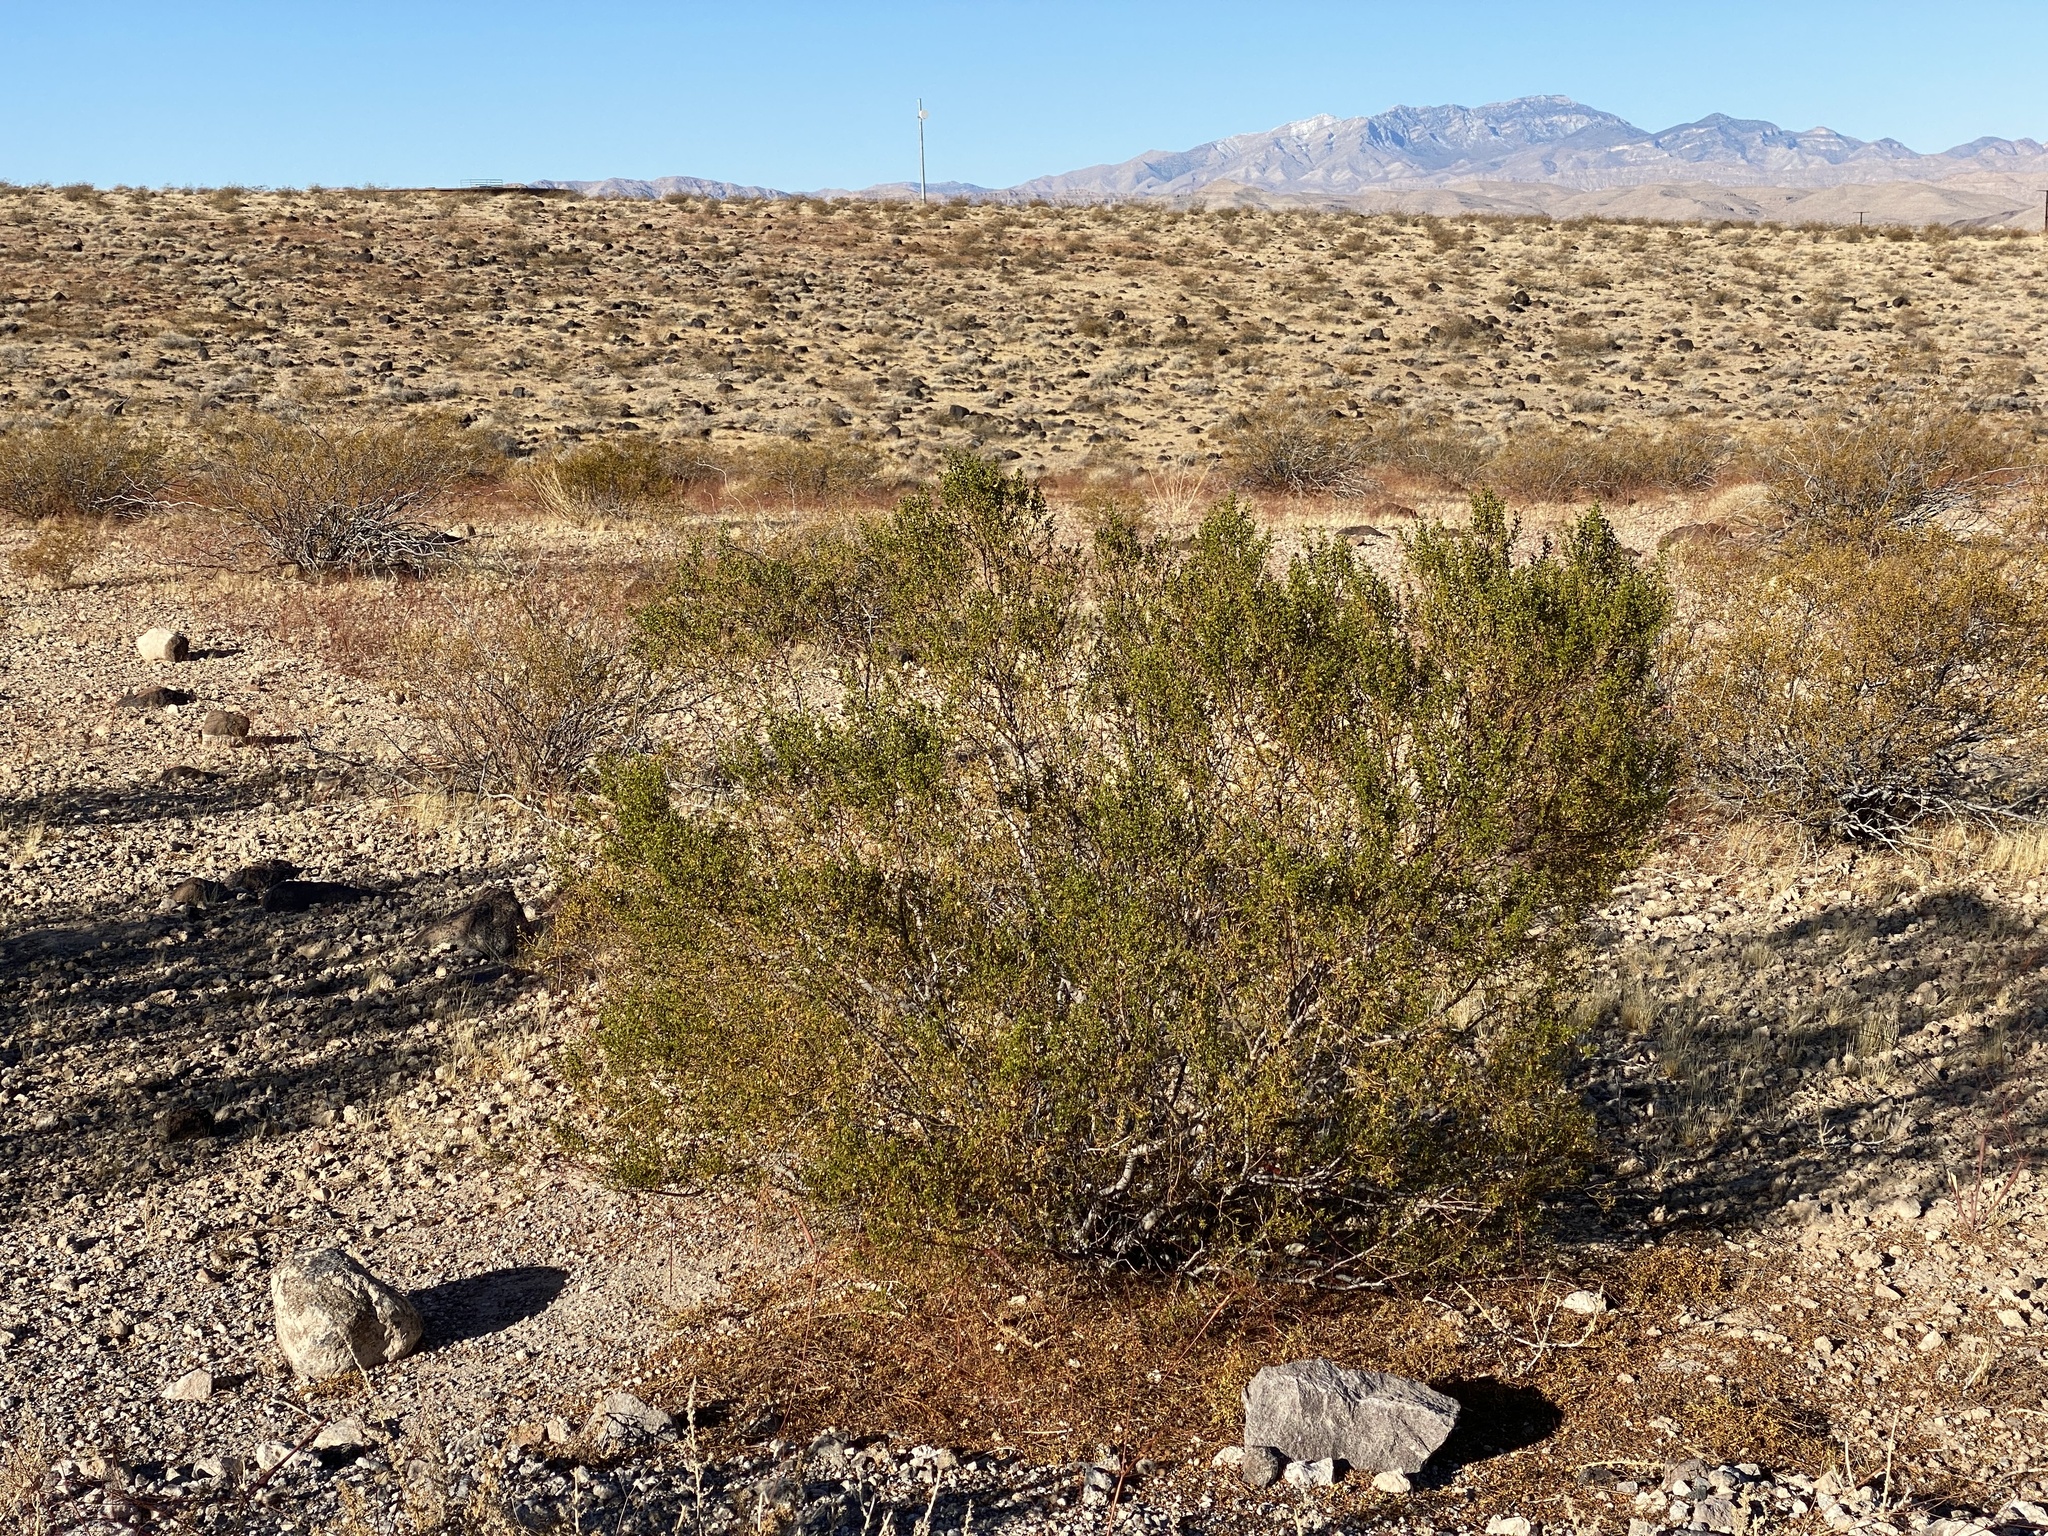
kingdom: Plantae
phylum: Tracheophyta
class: Magnoliopsida
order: Zygophyllales
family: Zygophyllaceae
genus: Larrea
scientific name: Larrea tridentata
